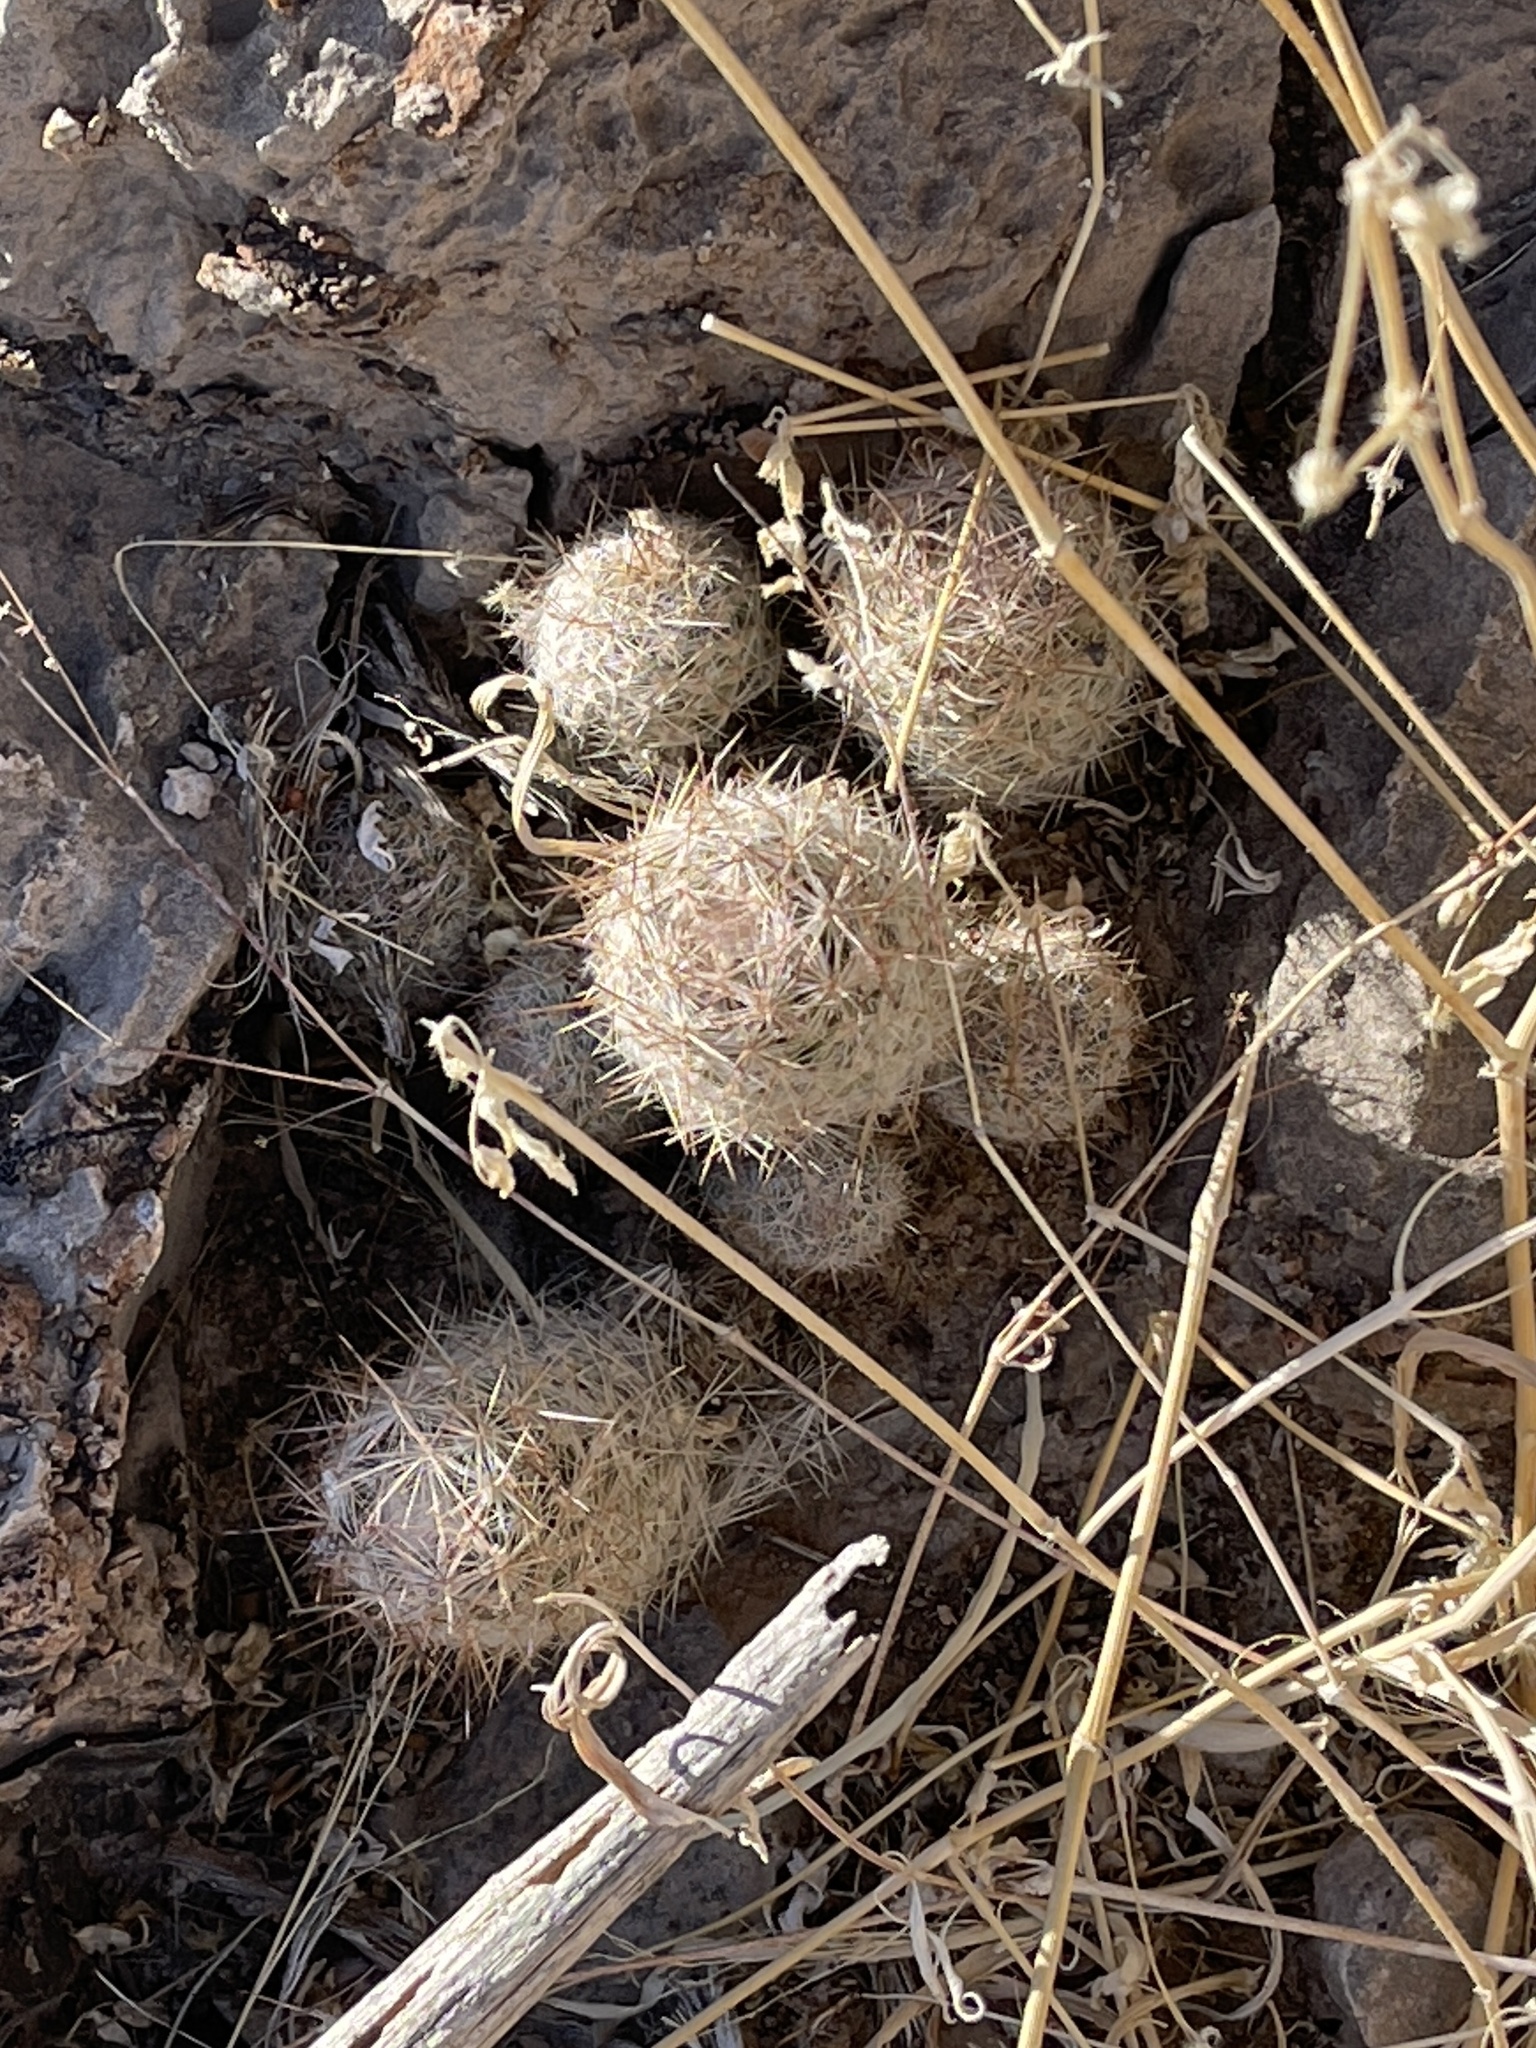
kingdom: Plantae
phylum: Tracheophyta
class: Magnoliopsida
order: Caryophyllales
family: Cactaceae
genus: Pelecyphora
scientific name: Pelecyphora sneedii
